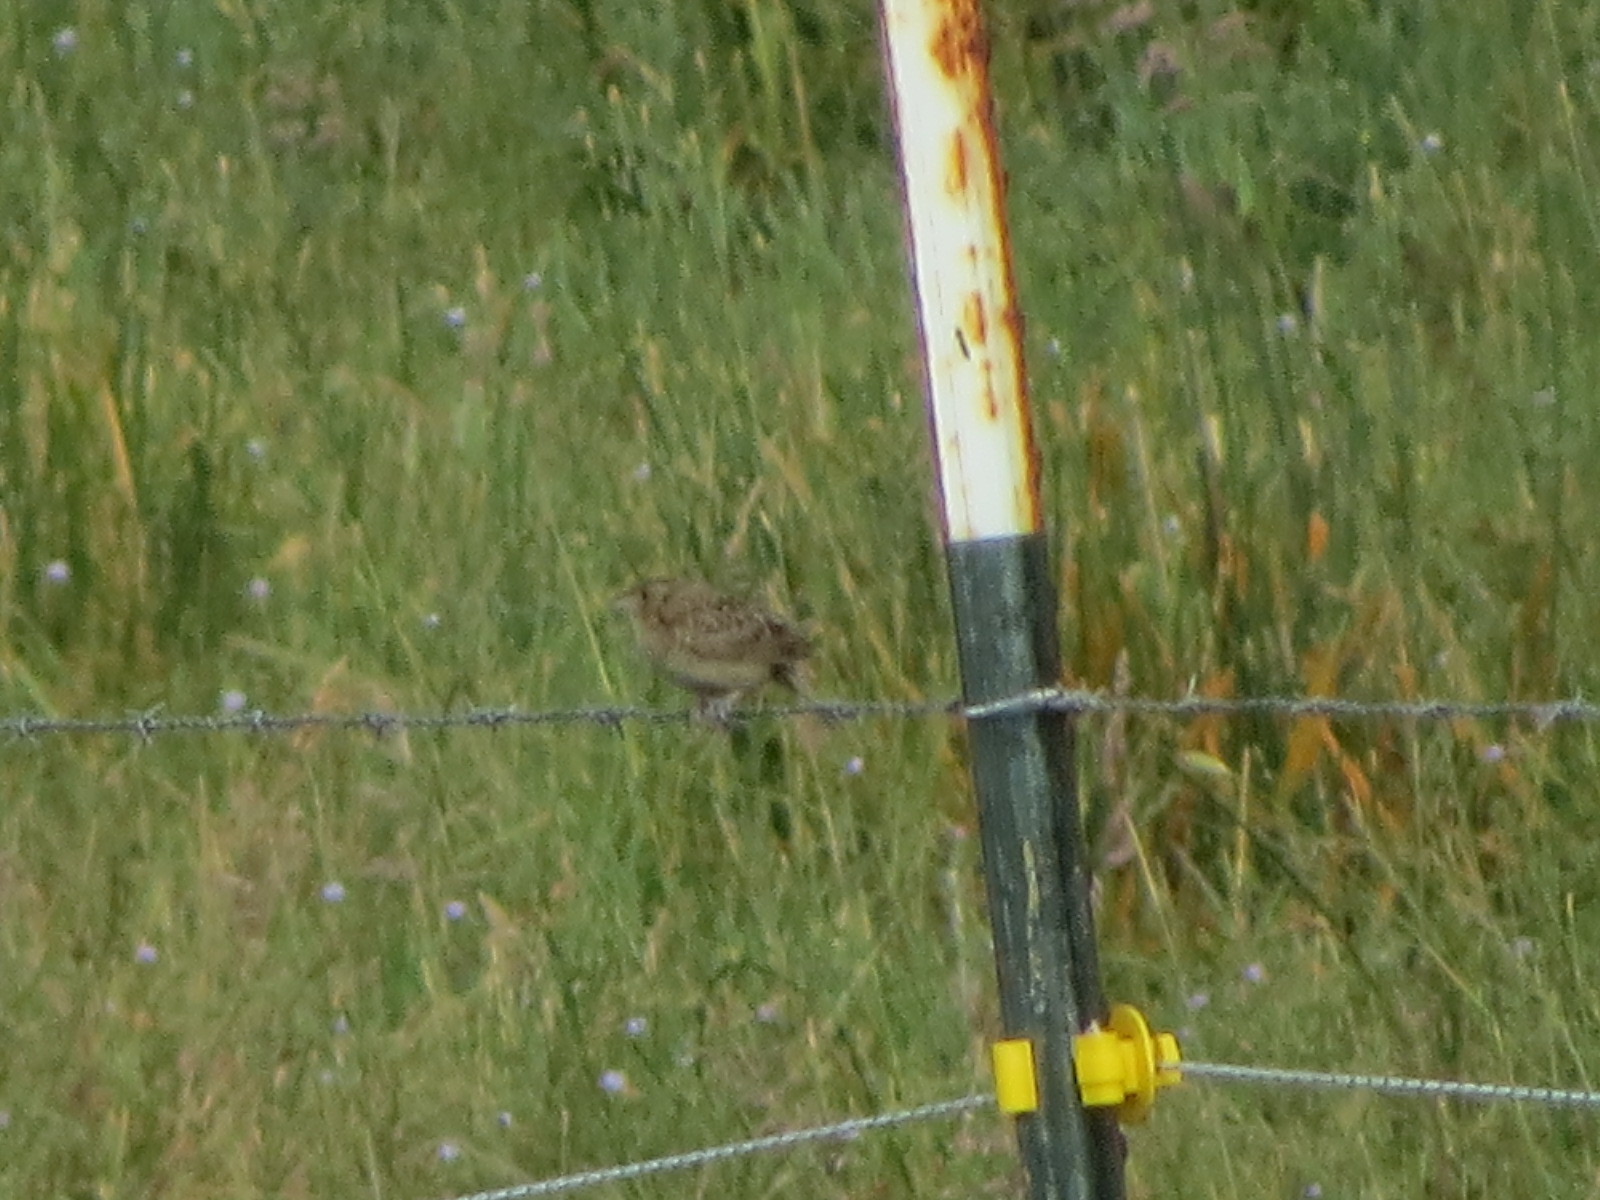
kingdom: Animalia
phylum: Chordata
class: Aves
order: Passeriformes
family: Passerellidae
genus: Ammodramus
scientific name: Ammodramus savannarum
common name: Grasshopper sparrow
